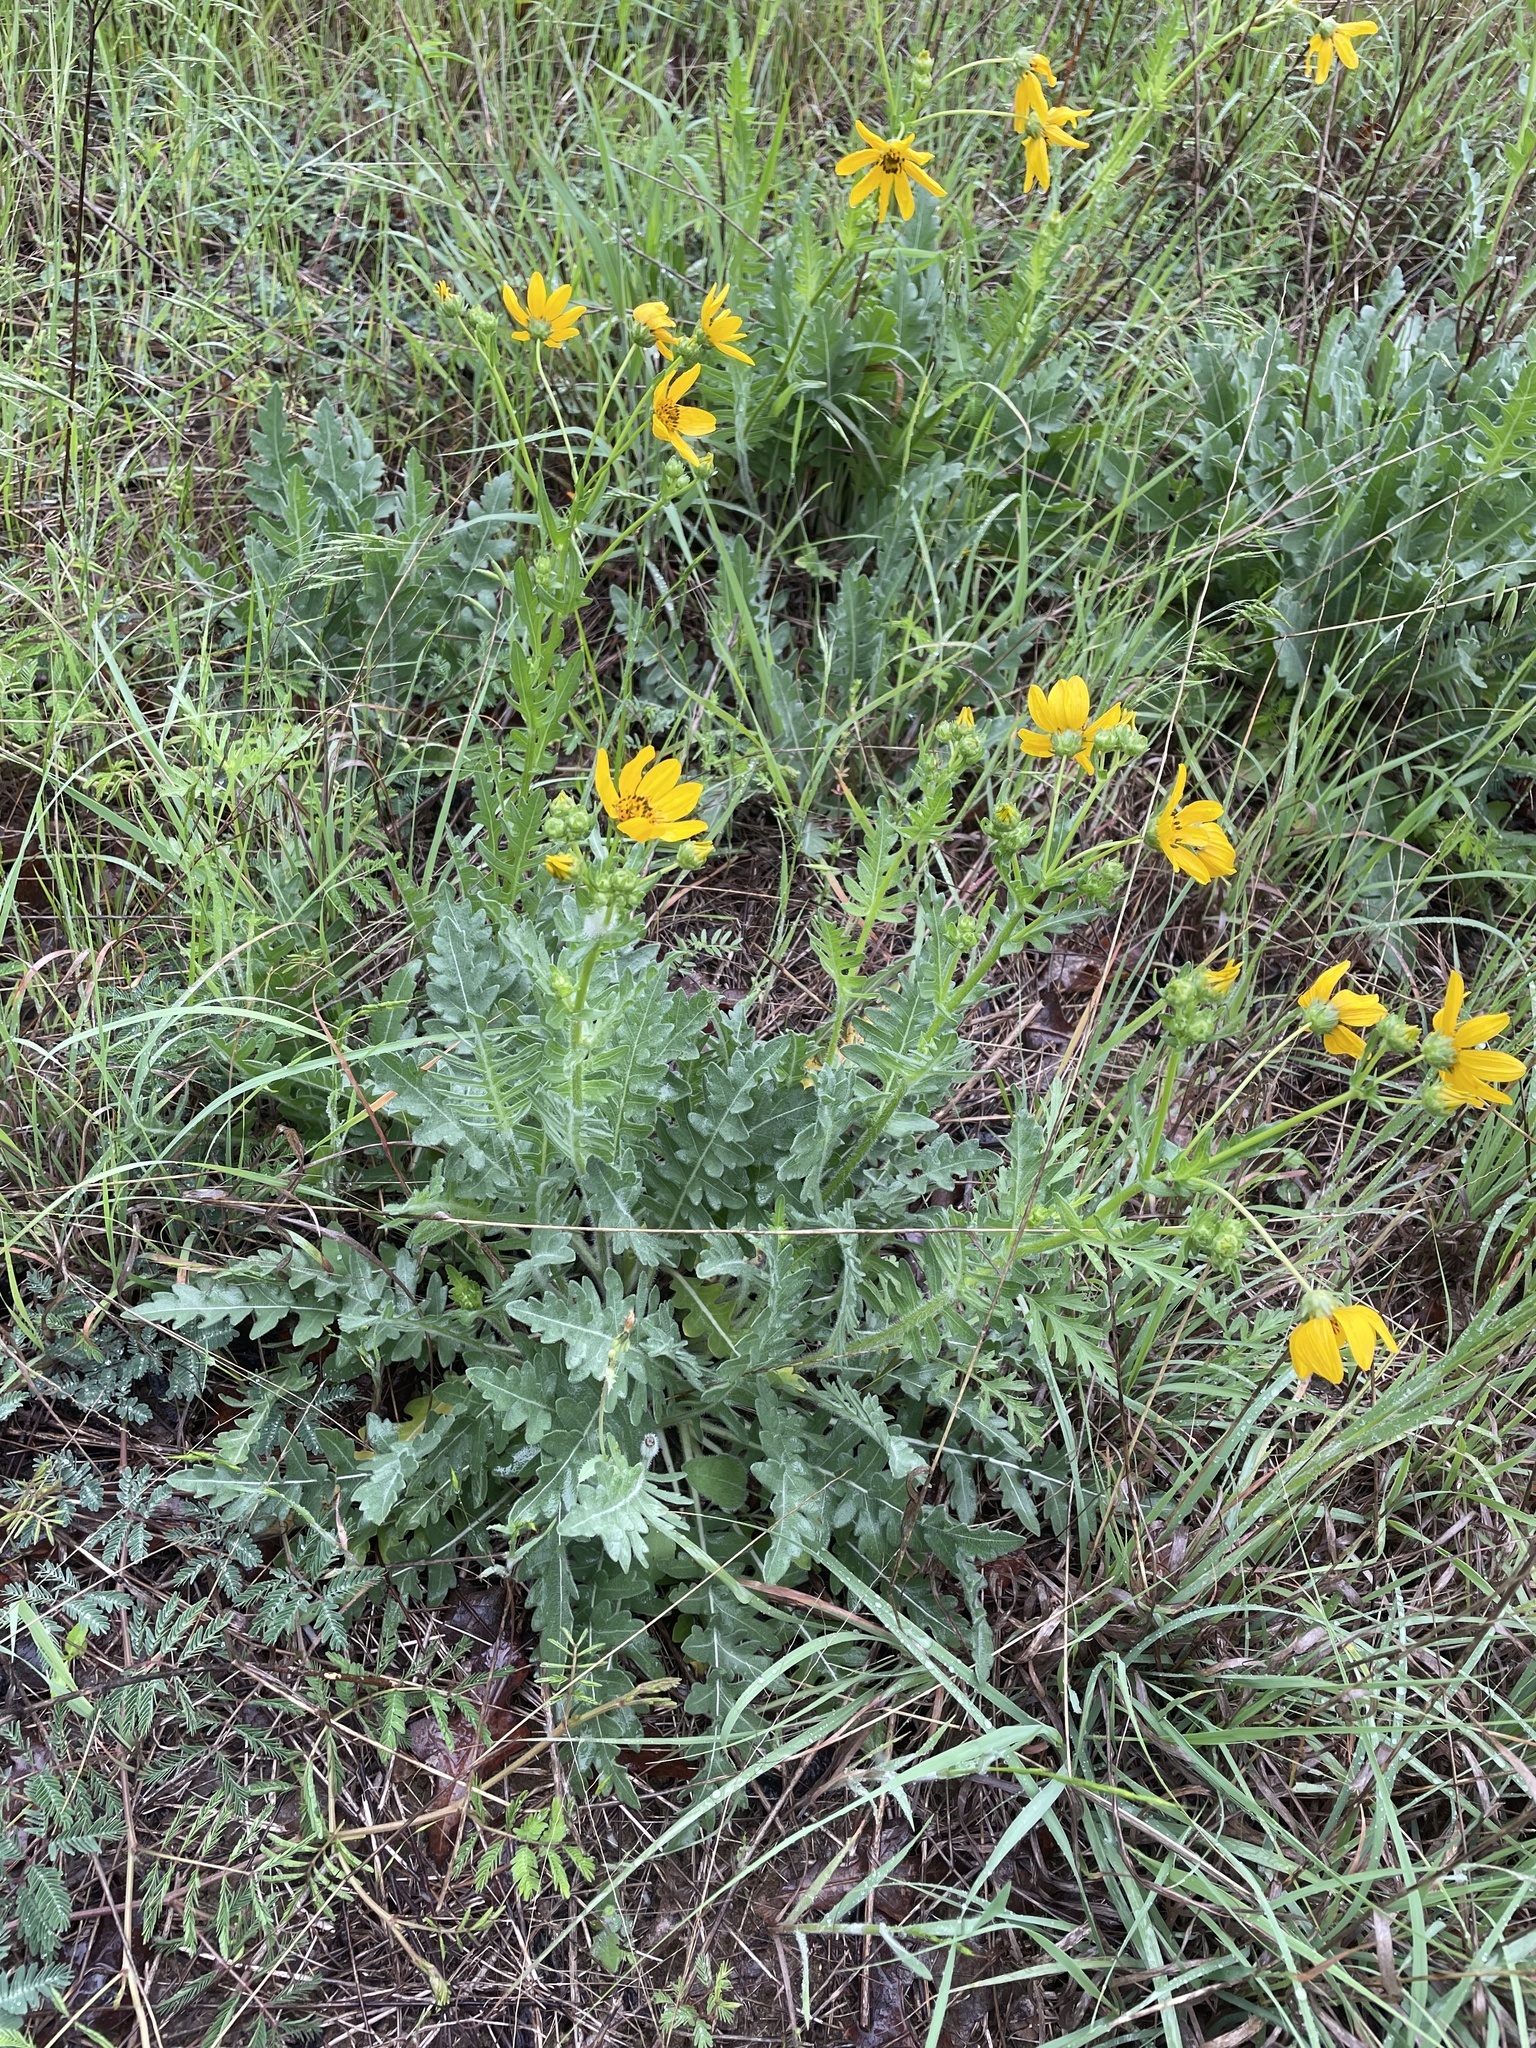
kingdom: Plantae
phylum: Tracheophyta
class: Magnoliopsida
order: Asterales
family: Asteraceae
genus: Engelmannia
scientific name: Engelmannia peristenia
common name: Engelmann's daisy
